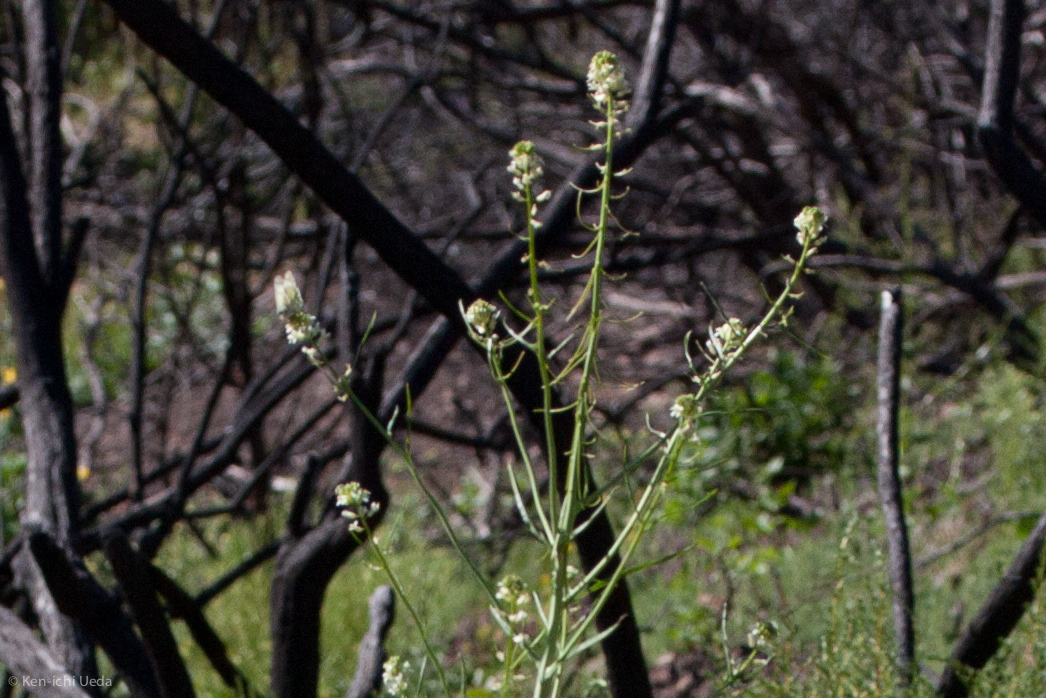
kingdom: Animalia
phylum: Arthropoda
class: Insecta
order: Lepidoptera
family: Pieridae
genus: Euchloe
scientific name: Euchloe ausonides
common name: Creamy marblewing
